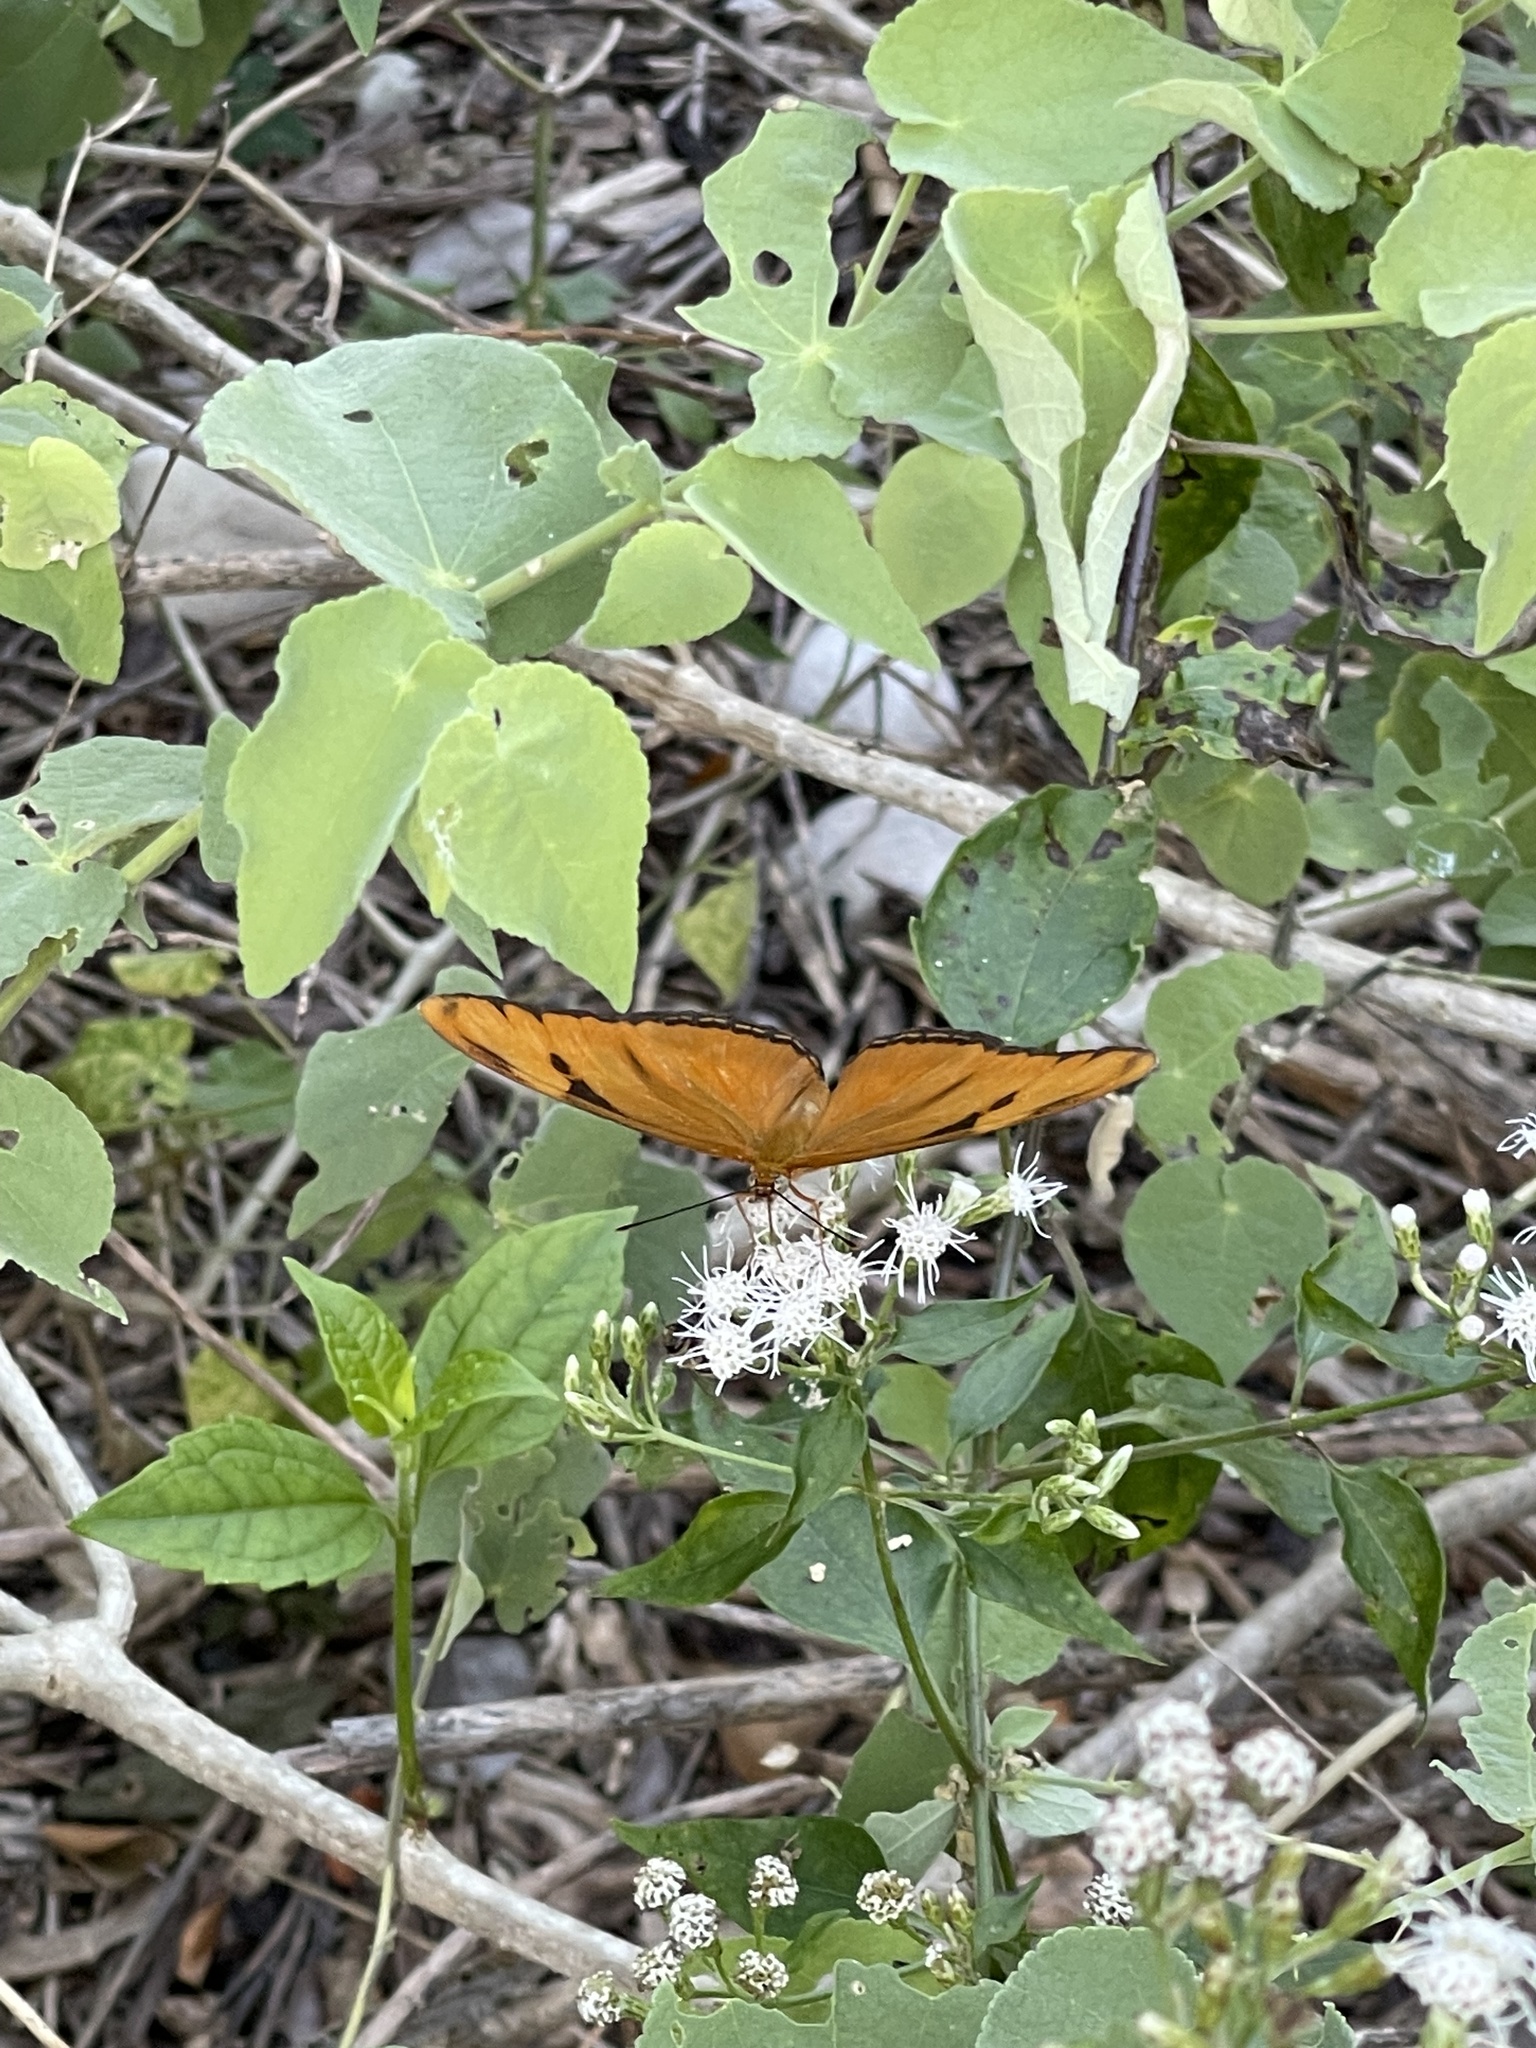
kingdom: Animalia
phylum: Arthropoda
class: Insecta
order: Lepidoptera
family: Nymphalidae
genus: Dryas
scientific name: Dryas iulia
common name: Flambeau
